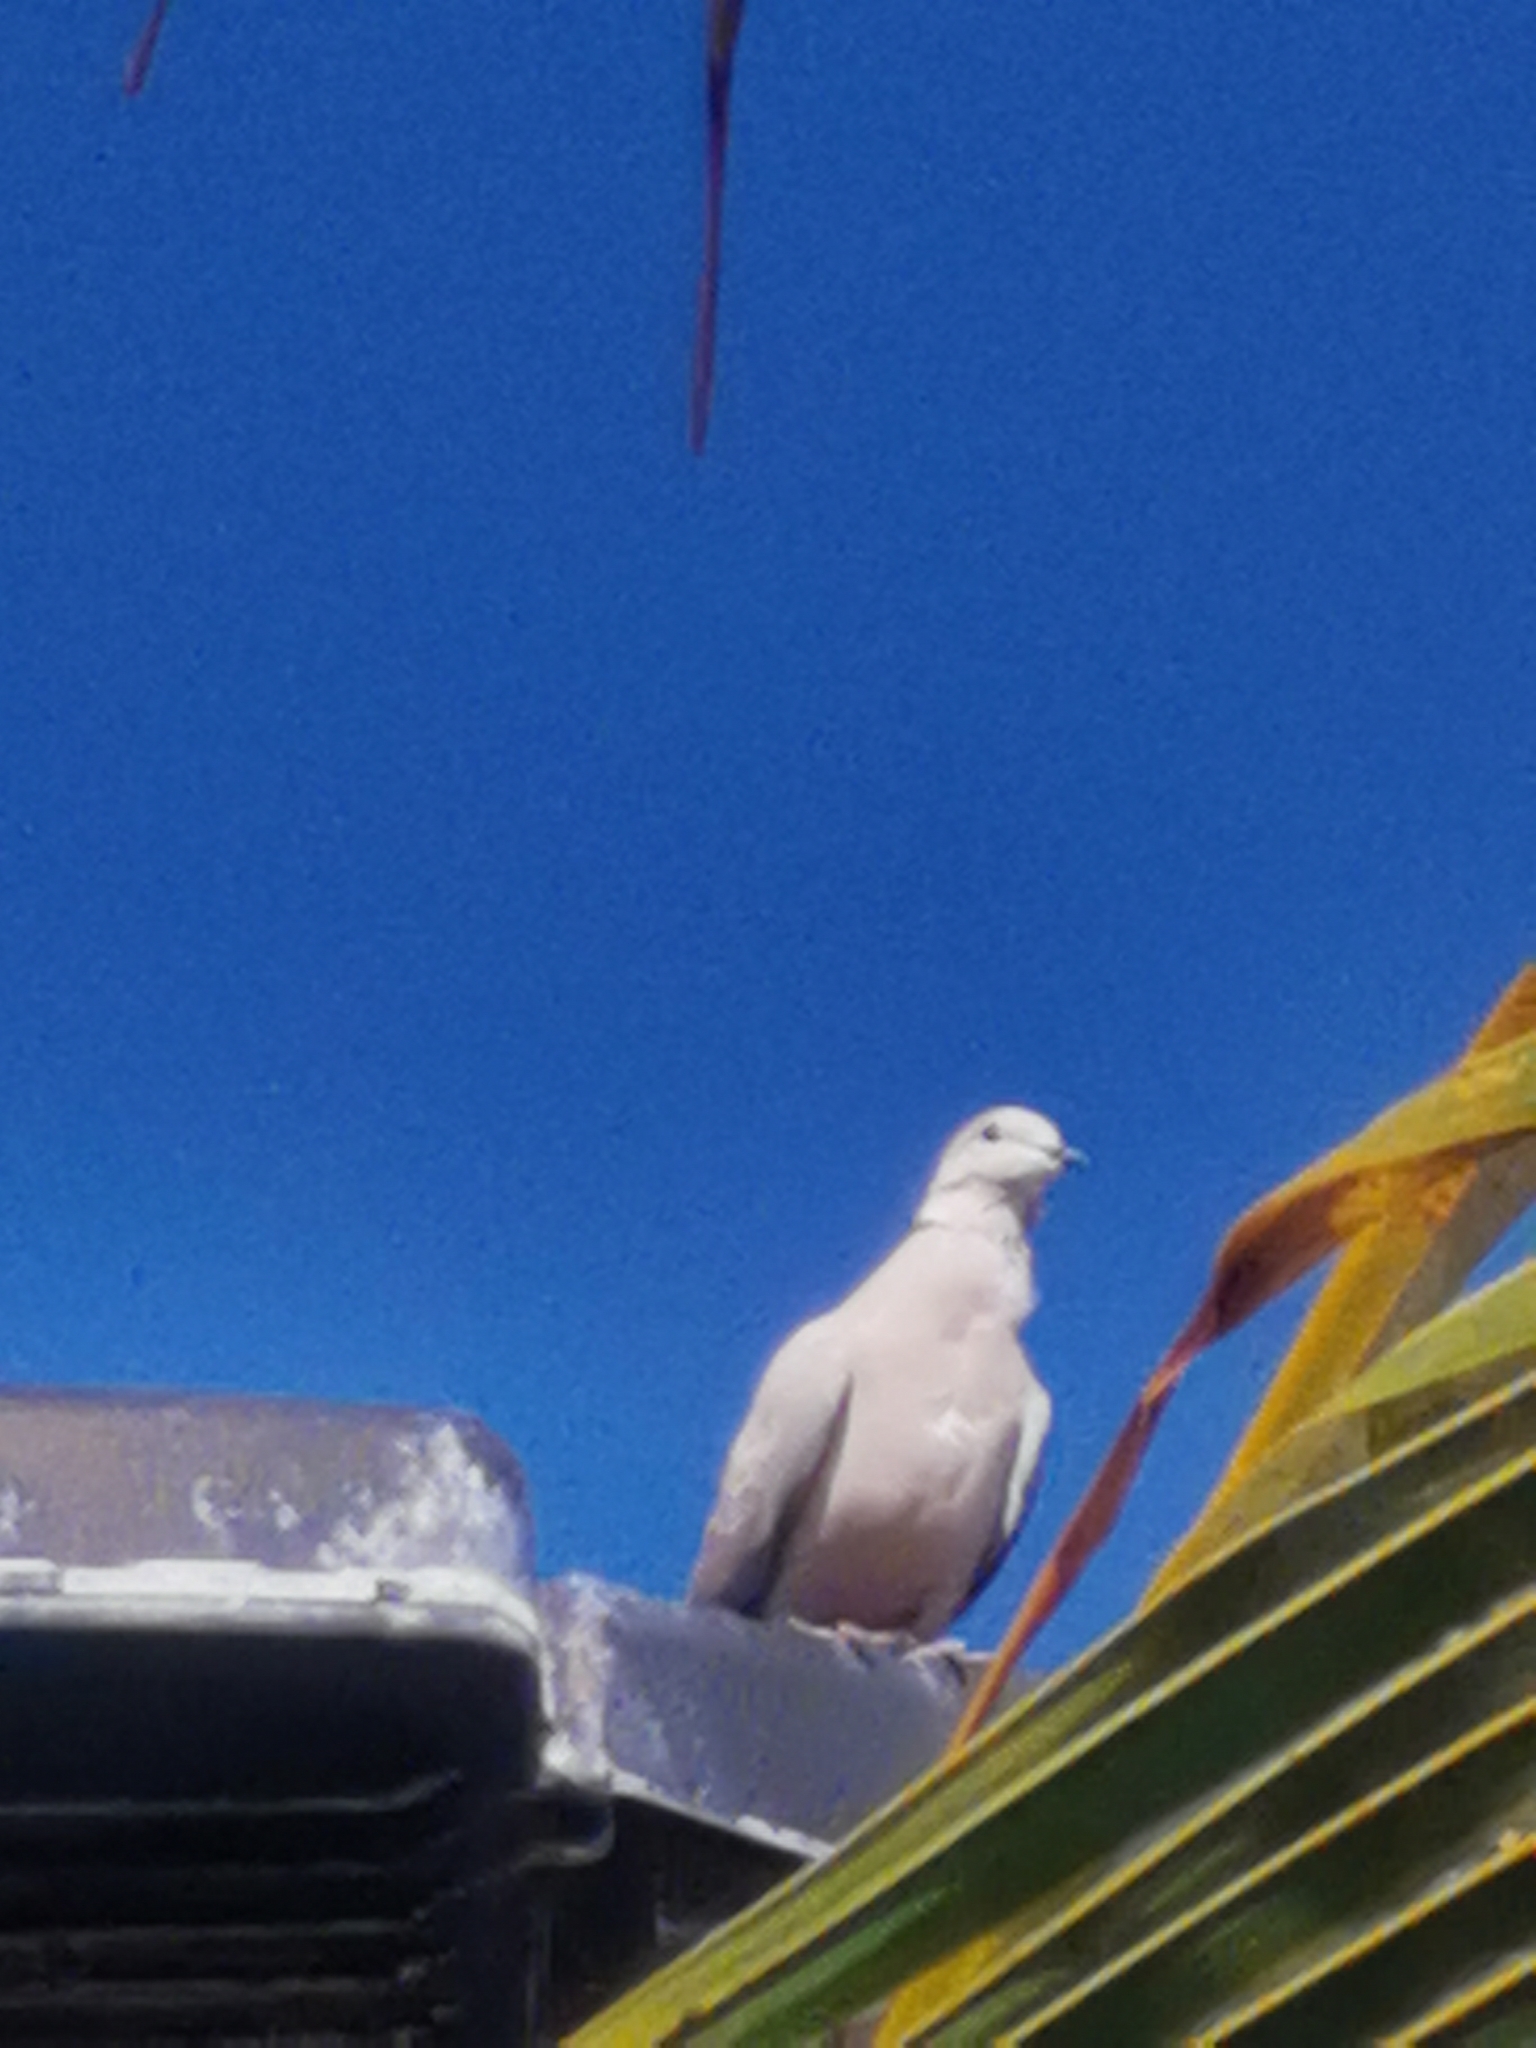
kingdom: Animalia
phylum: Chordata
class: Aves
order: Columbiformes
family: Columbidae
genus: Streptopelia
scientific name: Streptopelia decaocto
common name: Eurasian collared dove
